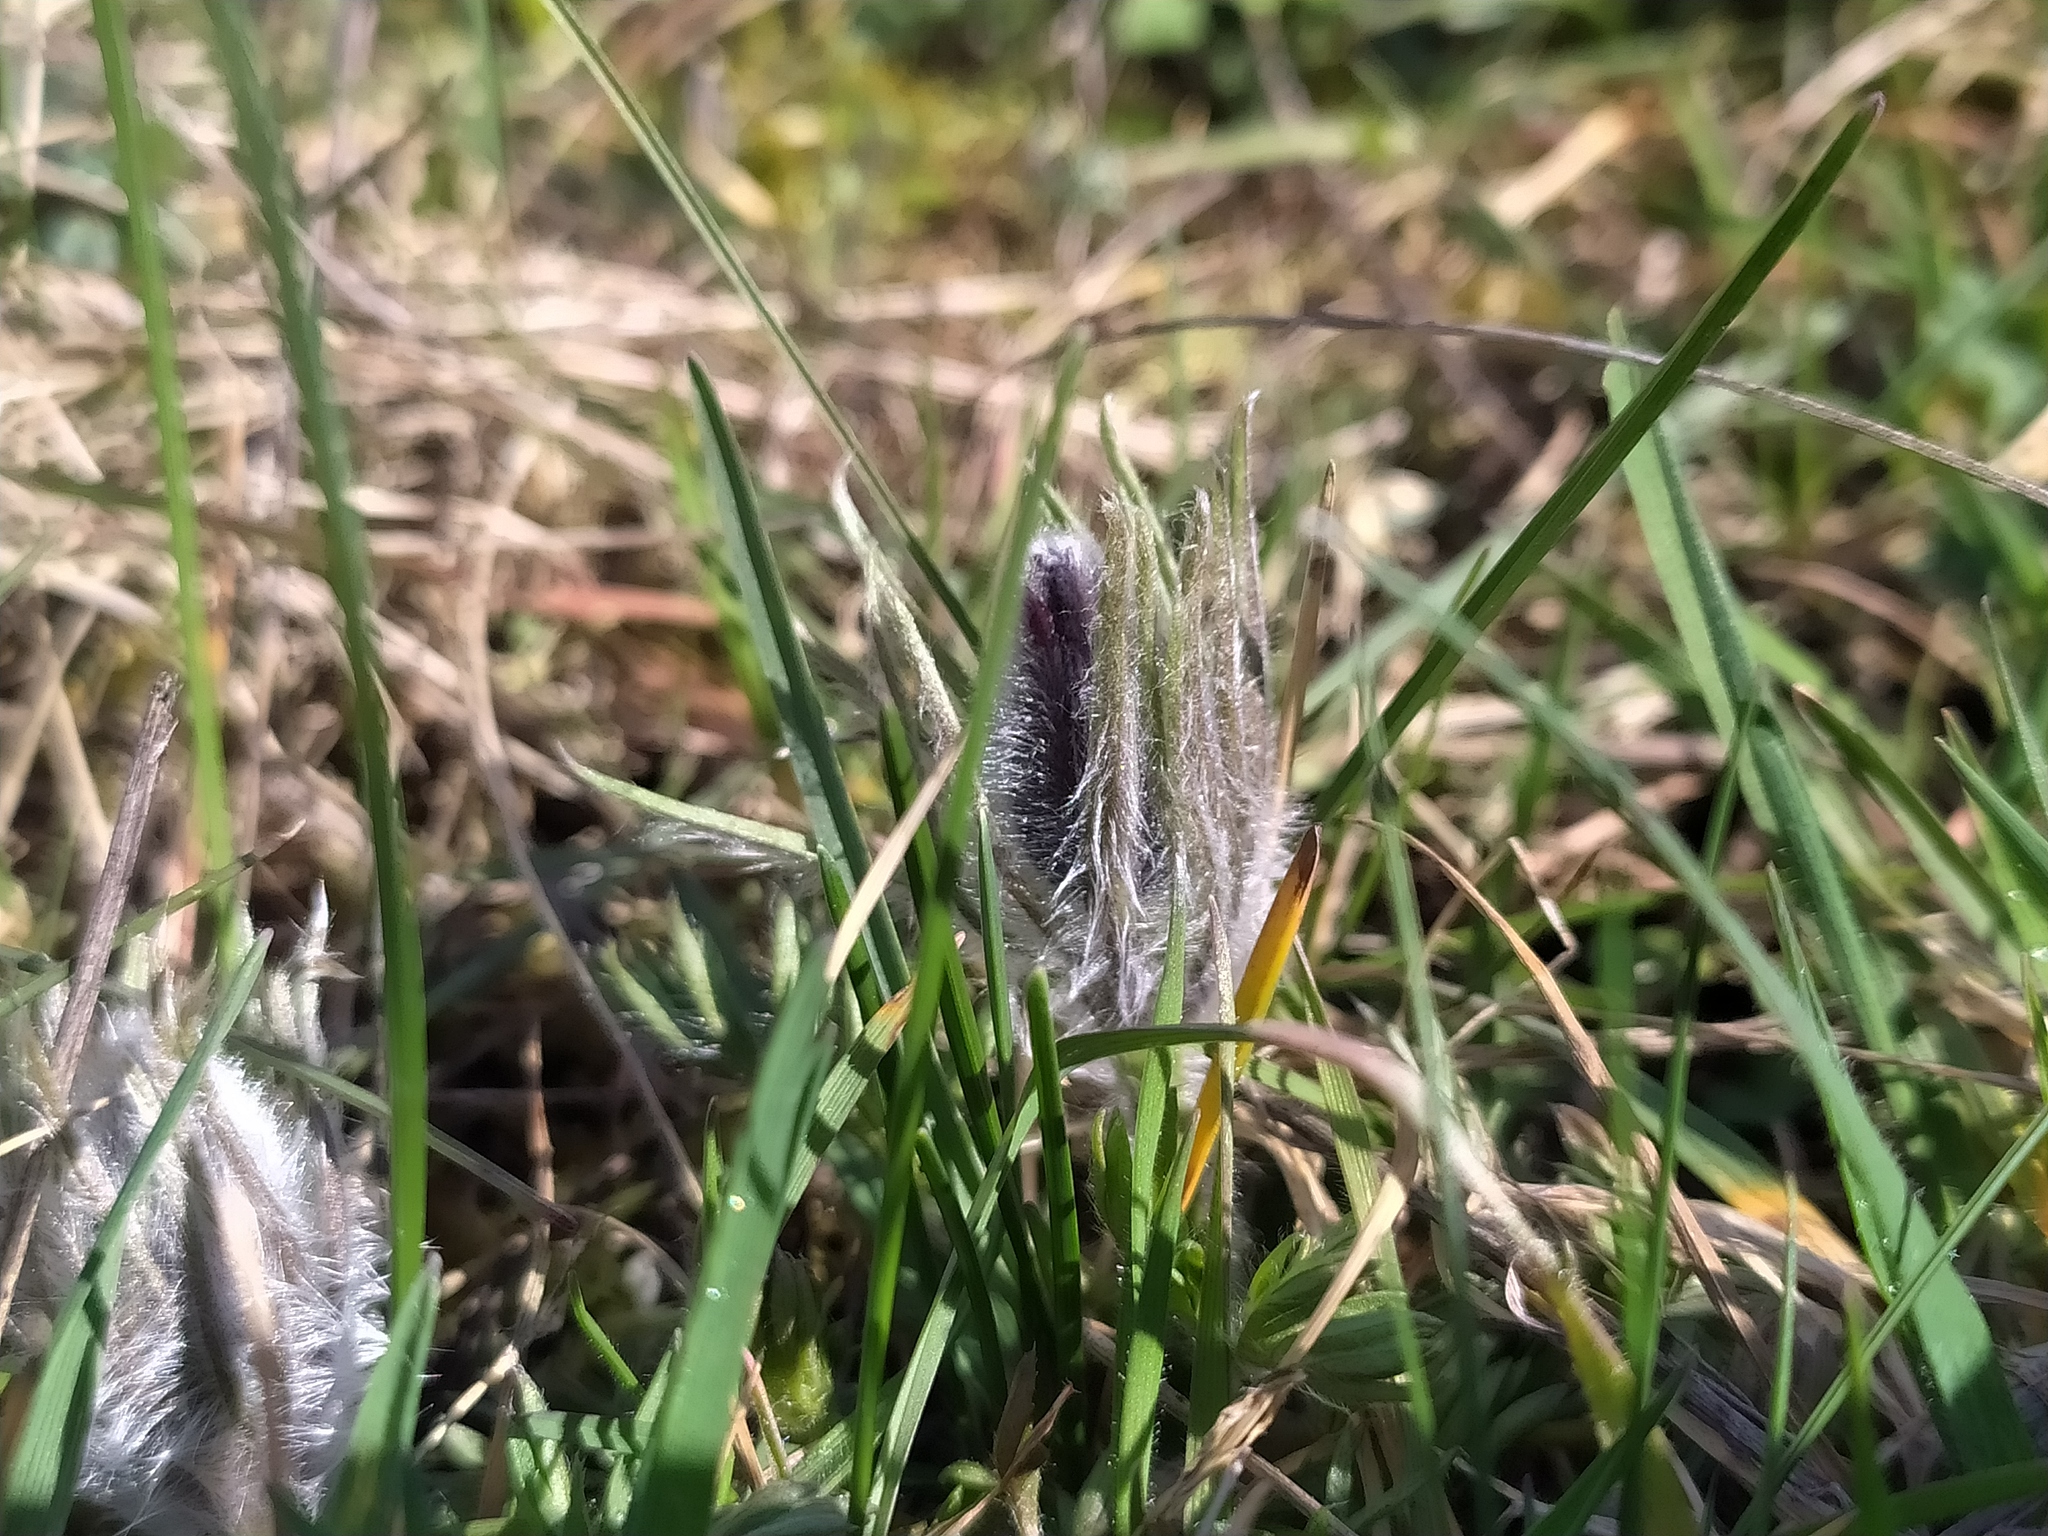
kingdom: Plantae
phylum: Tracheophyta
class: Magnoliopsida
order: Ranunculales
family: Ranunculaceae
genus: Pulsatilla
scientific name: Pulsatilla vulgaris
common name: Pasqueflower
